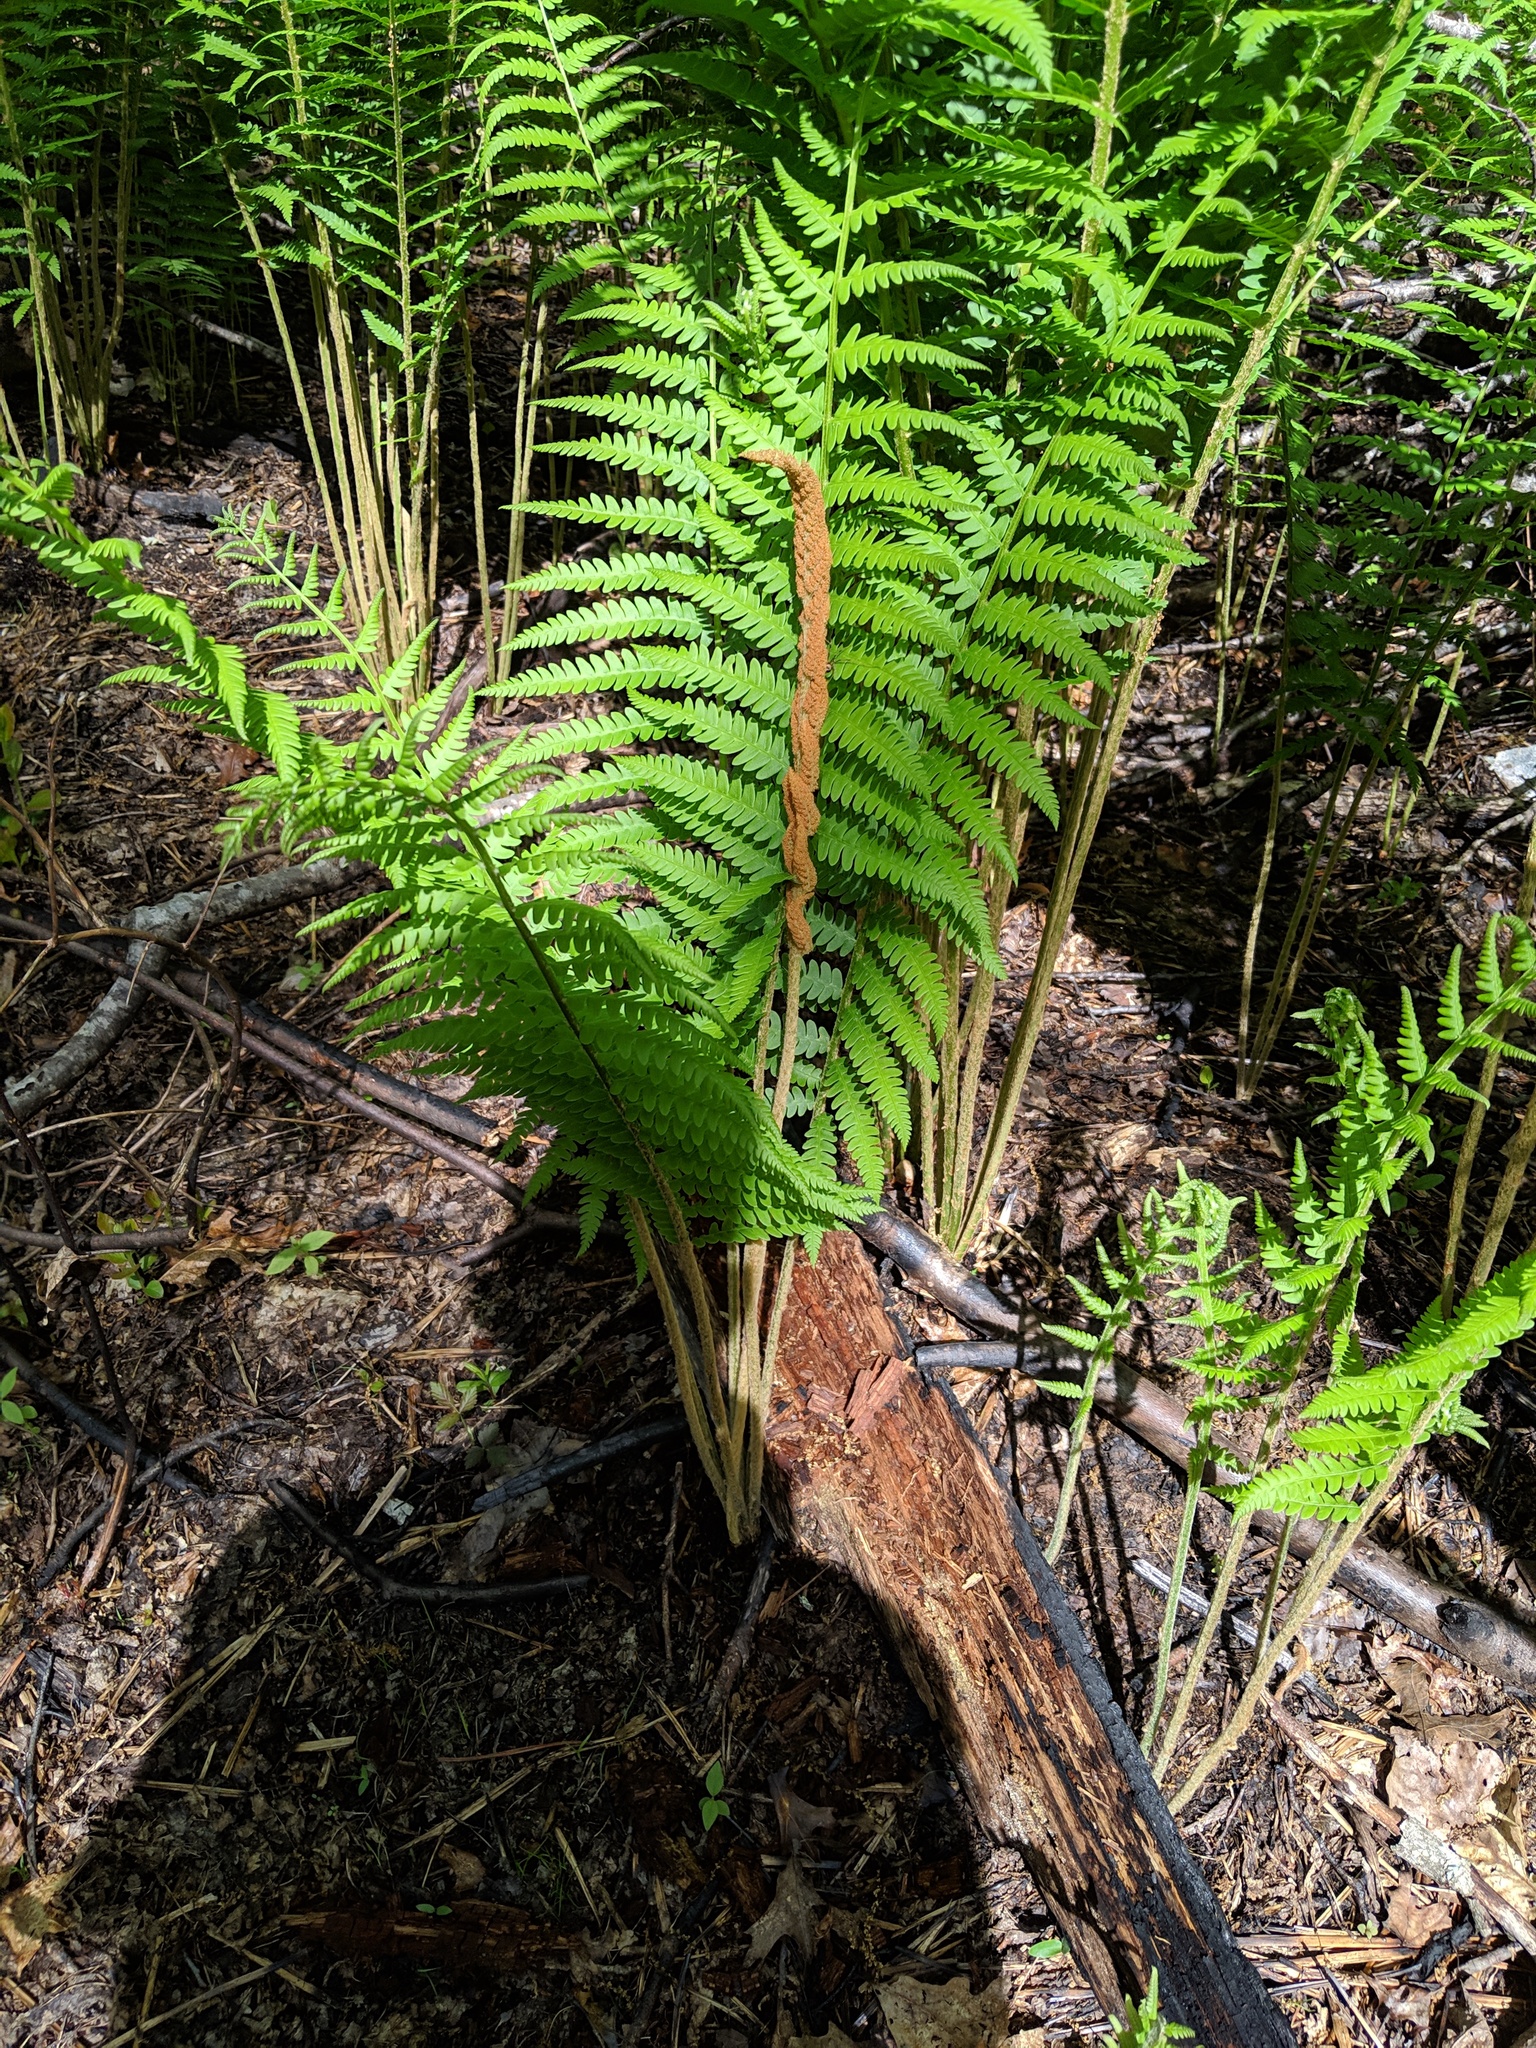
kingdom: Plantae
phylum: Tracheophyta
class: Polypodiopsida
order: Osmundales
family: Osmundaceae
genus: Osmundastrum
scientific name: Osmundastrum cinnamomeum
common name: Cinnamon fern
